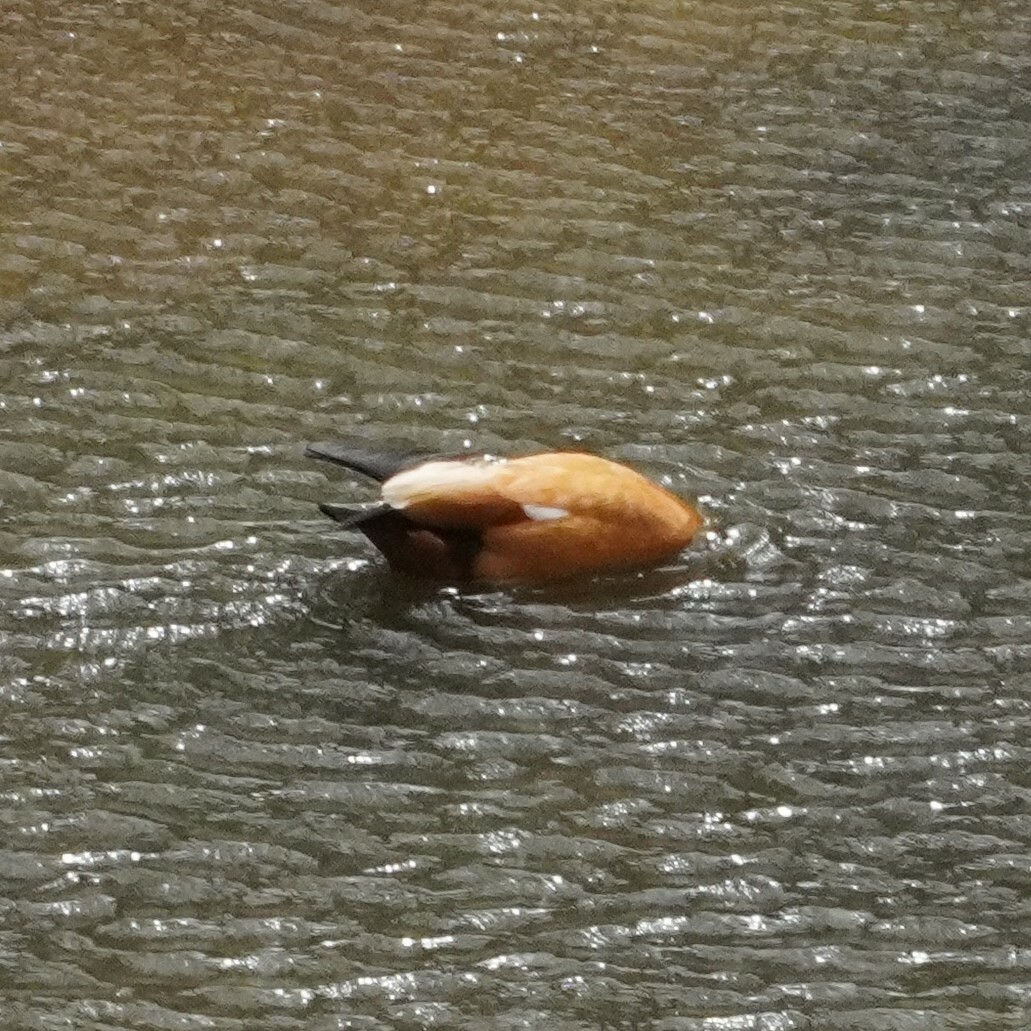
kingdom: Animalia
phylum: Chordata
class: Aves
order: Anseriformes
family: Anatidae
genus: Tadorna
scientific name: Tadorna ferruginea
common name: Ruddy shelduck
